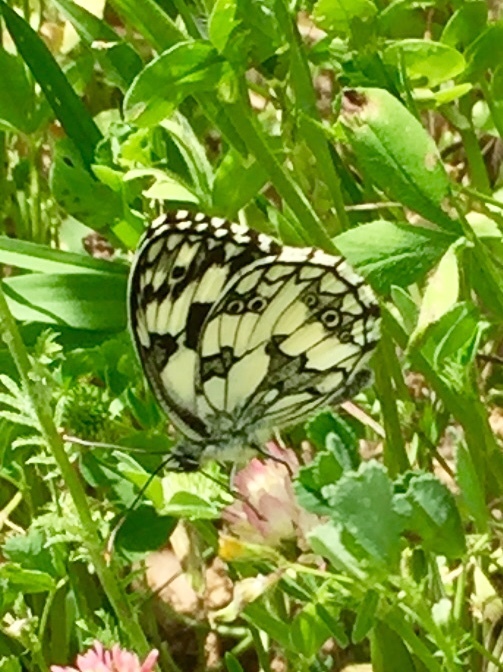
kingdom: Animalia
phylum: Arthropoda
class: Insecta
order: Lepidoptera
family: Nymphalidae
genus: Melanargia
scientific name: Melanargia galathea
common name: Marbled white
